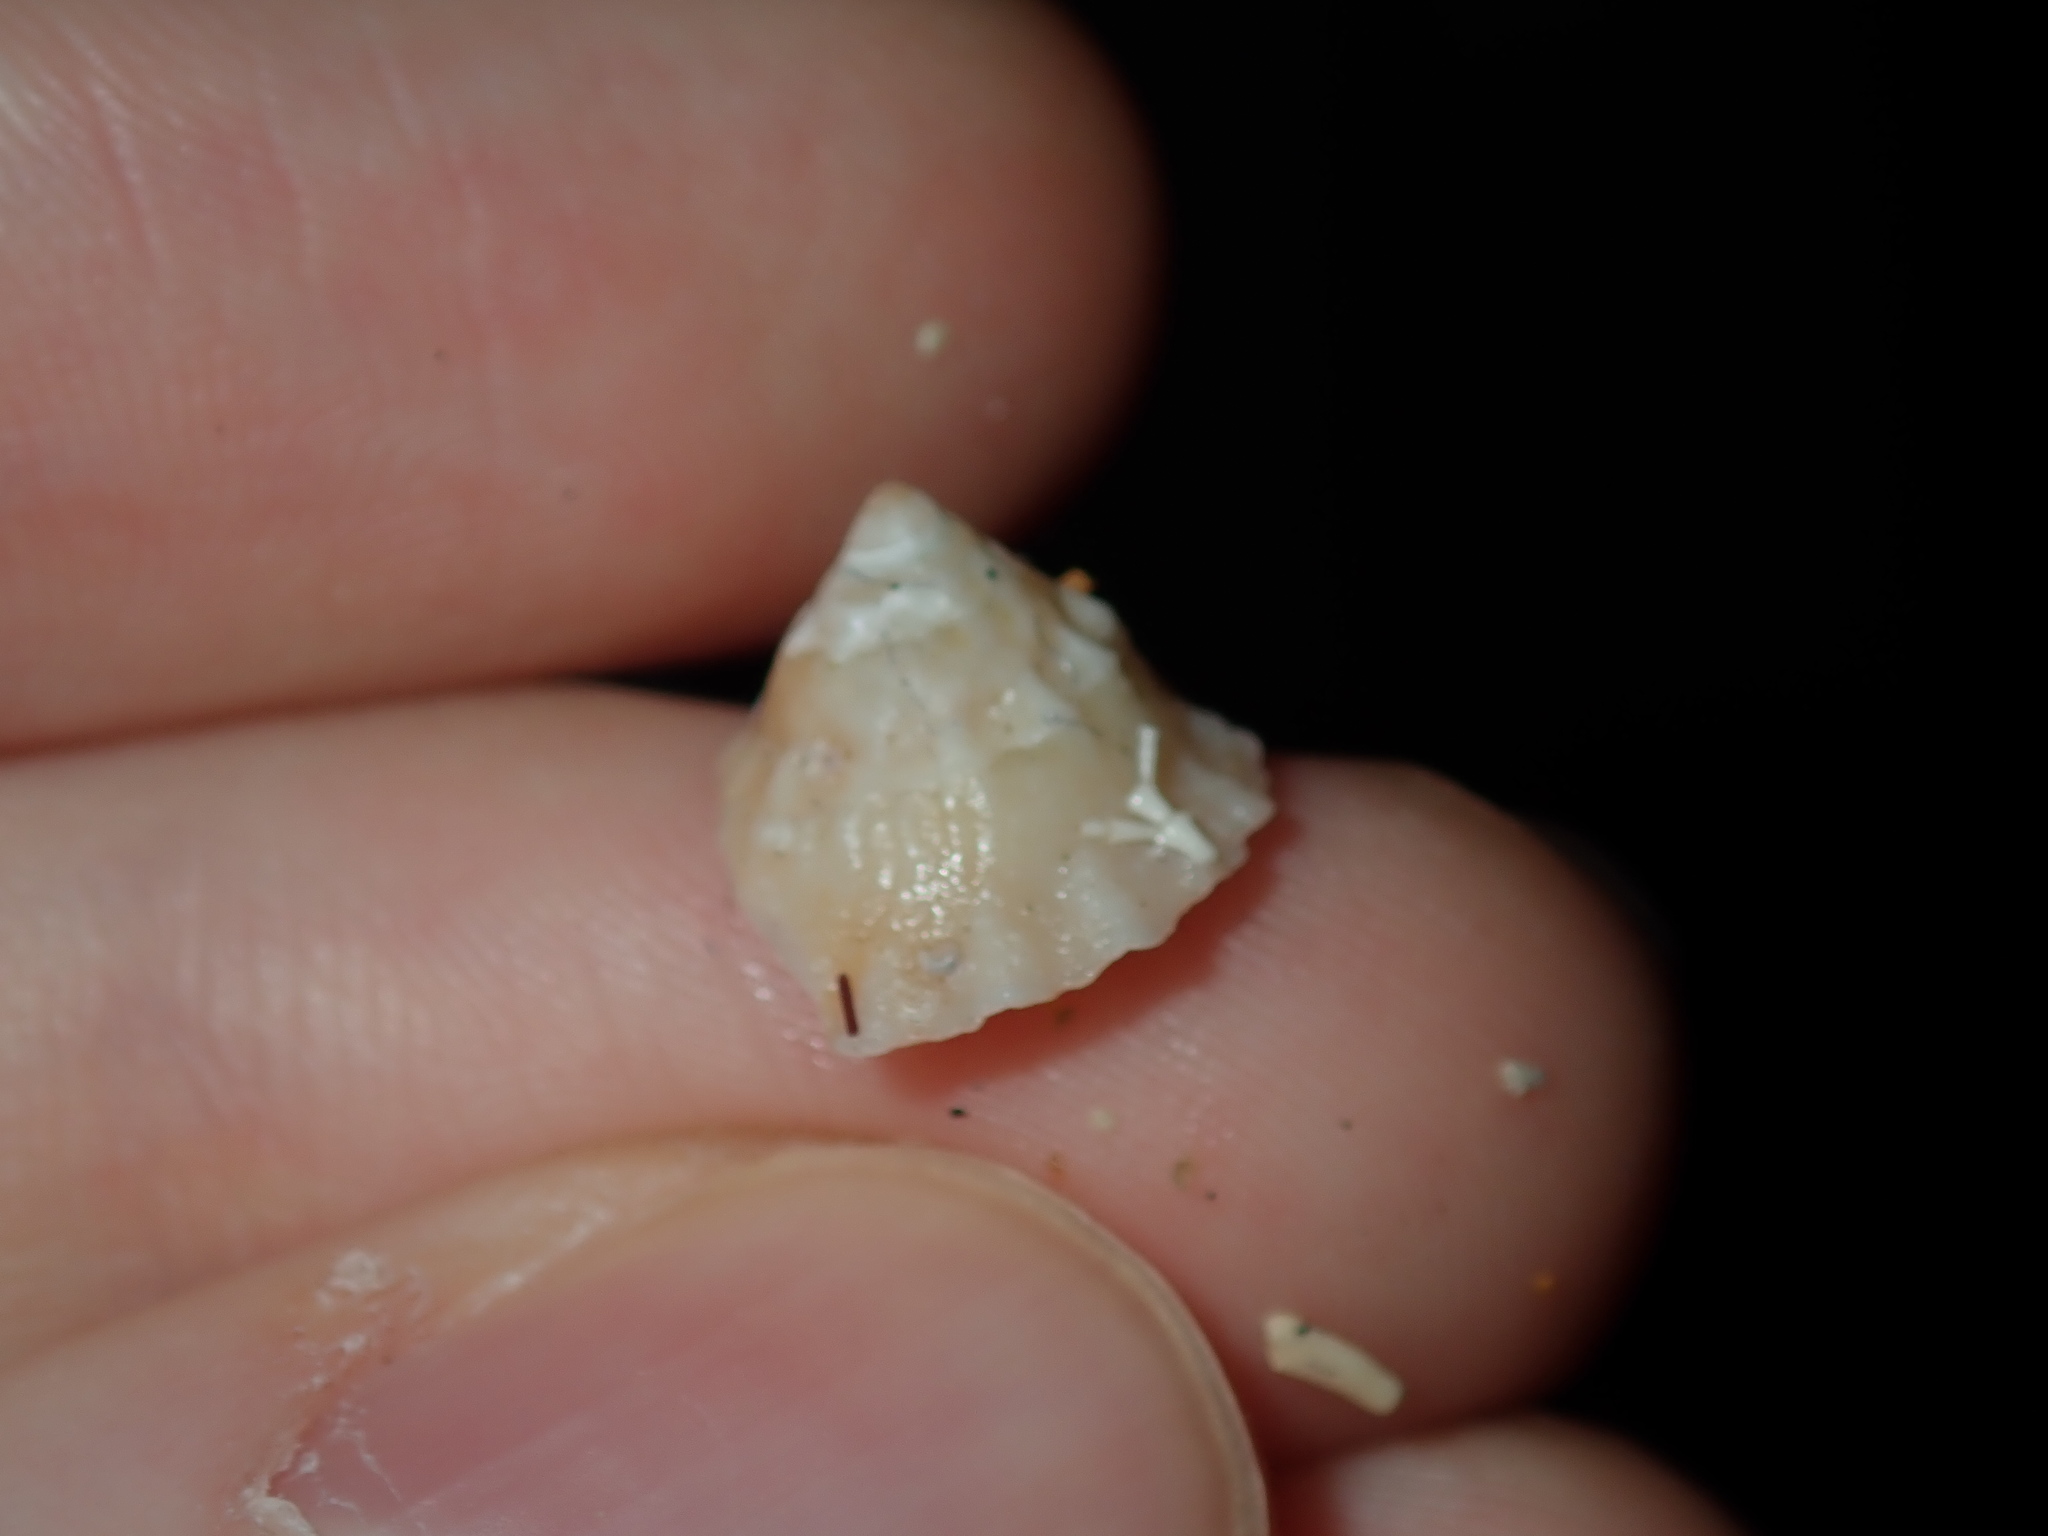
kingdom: Animalia
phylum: Mollusca
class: Gastropoda
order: Trochida
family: Turbinidae
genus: Bellastraea
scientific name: Bellastraea squamifera
